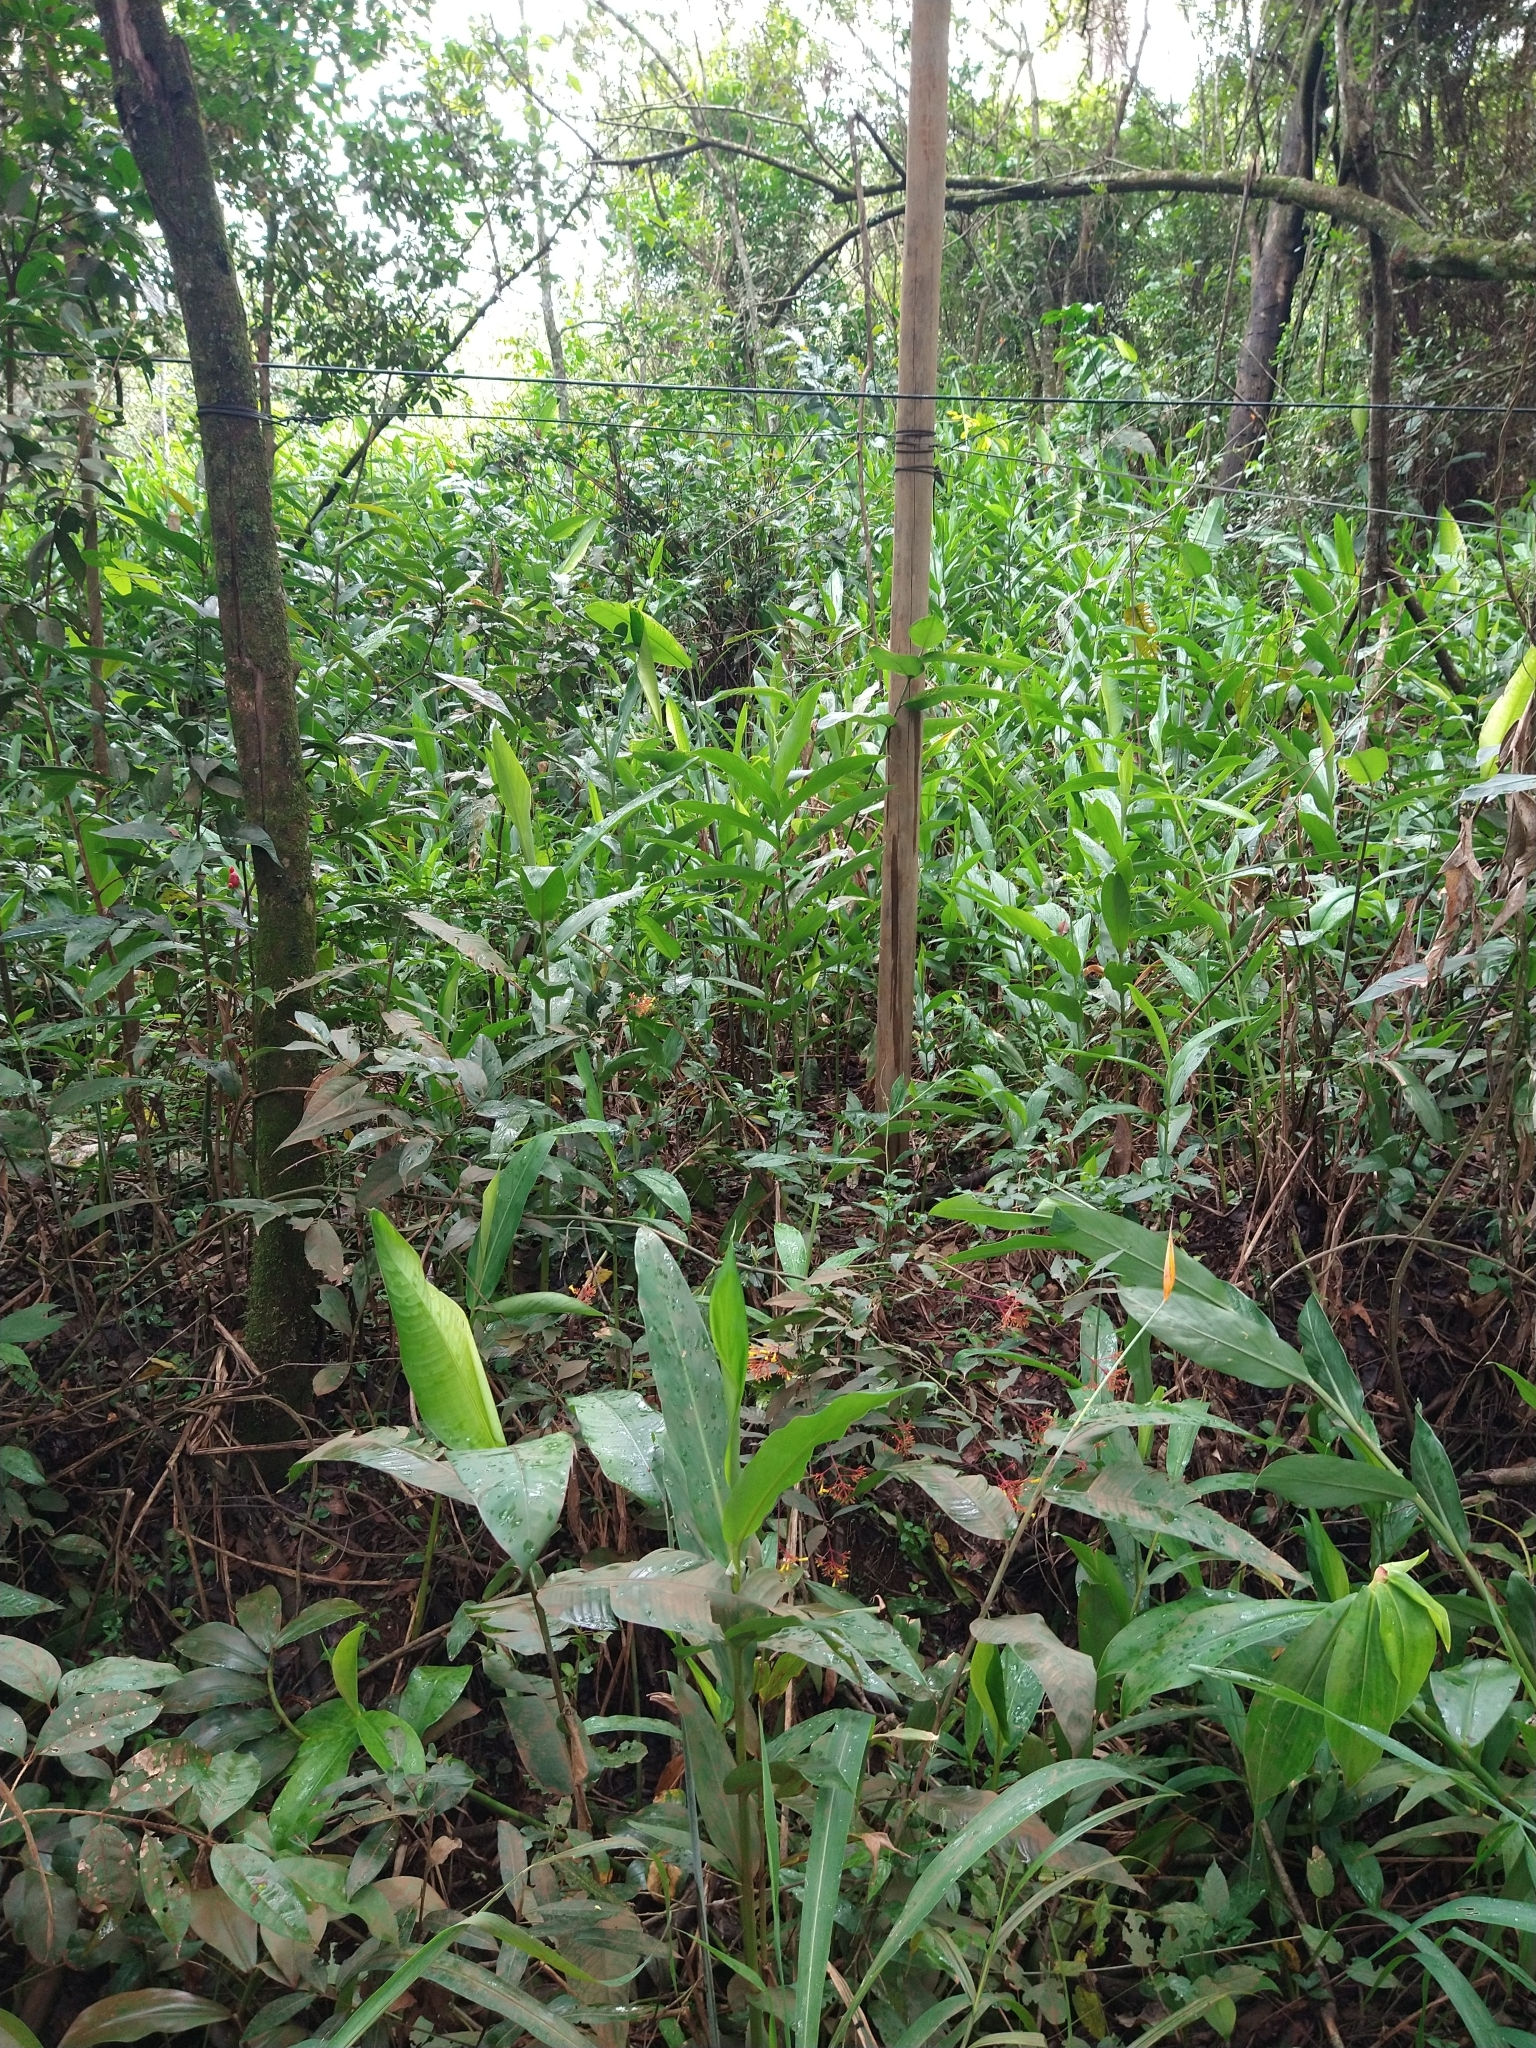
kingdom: Plantae
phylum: Tracheophyta
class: Liliopsida
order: Zingiberales
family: Zingiberaceae
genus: Hedychium
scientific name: Hedychium coronarium
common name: White garland-lily
